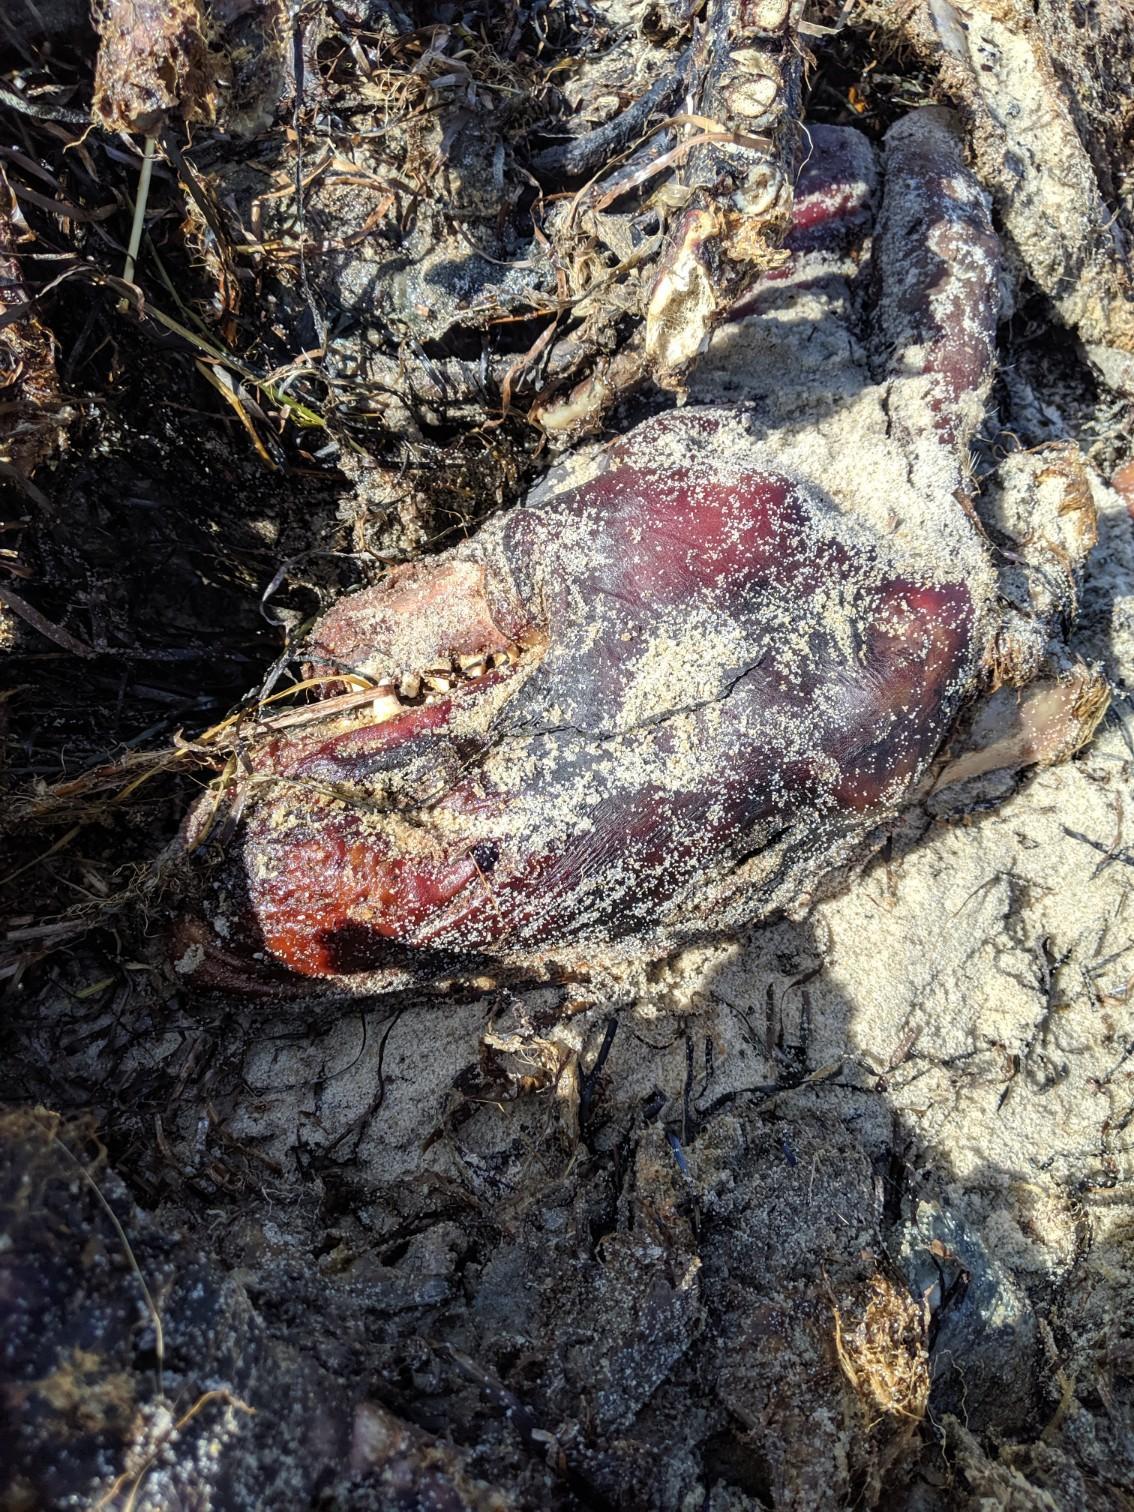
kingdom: Animalia
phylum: Chordata
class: Mammalia
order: Carnivora
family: Phocidae
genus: Halichoerus
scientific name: Halichoerus grypus
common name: Grey seal
